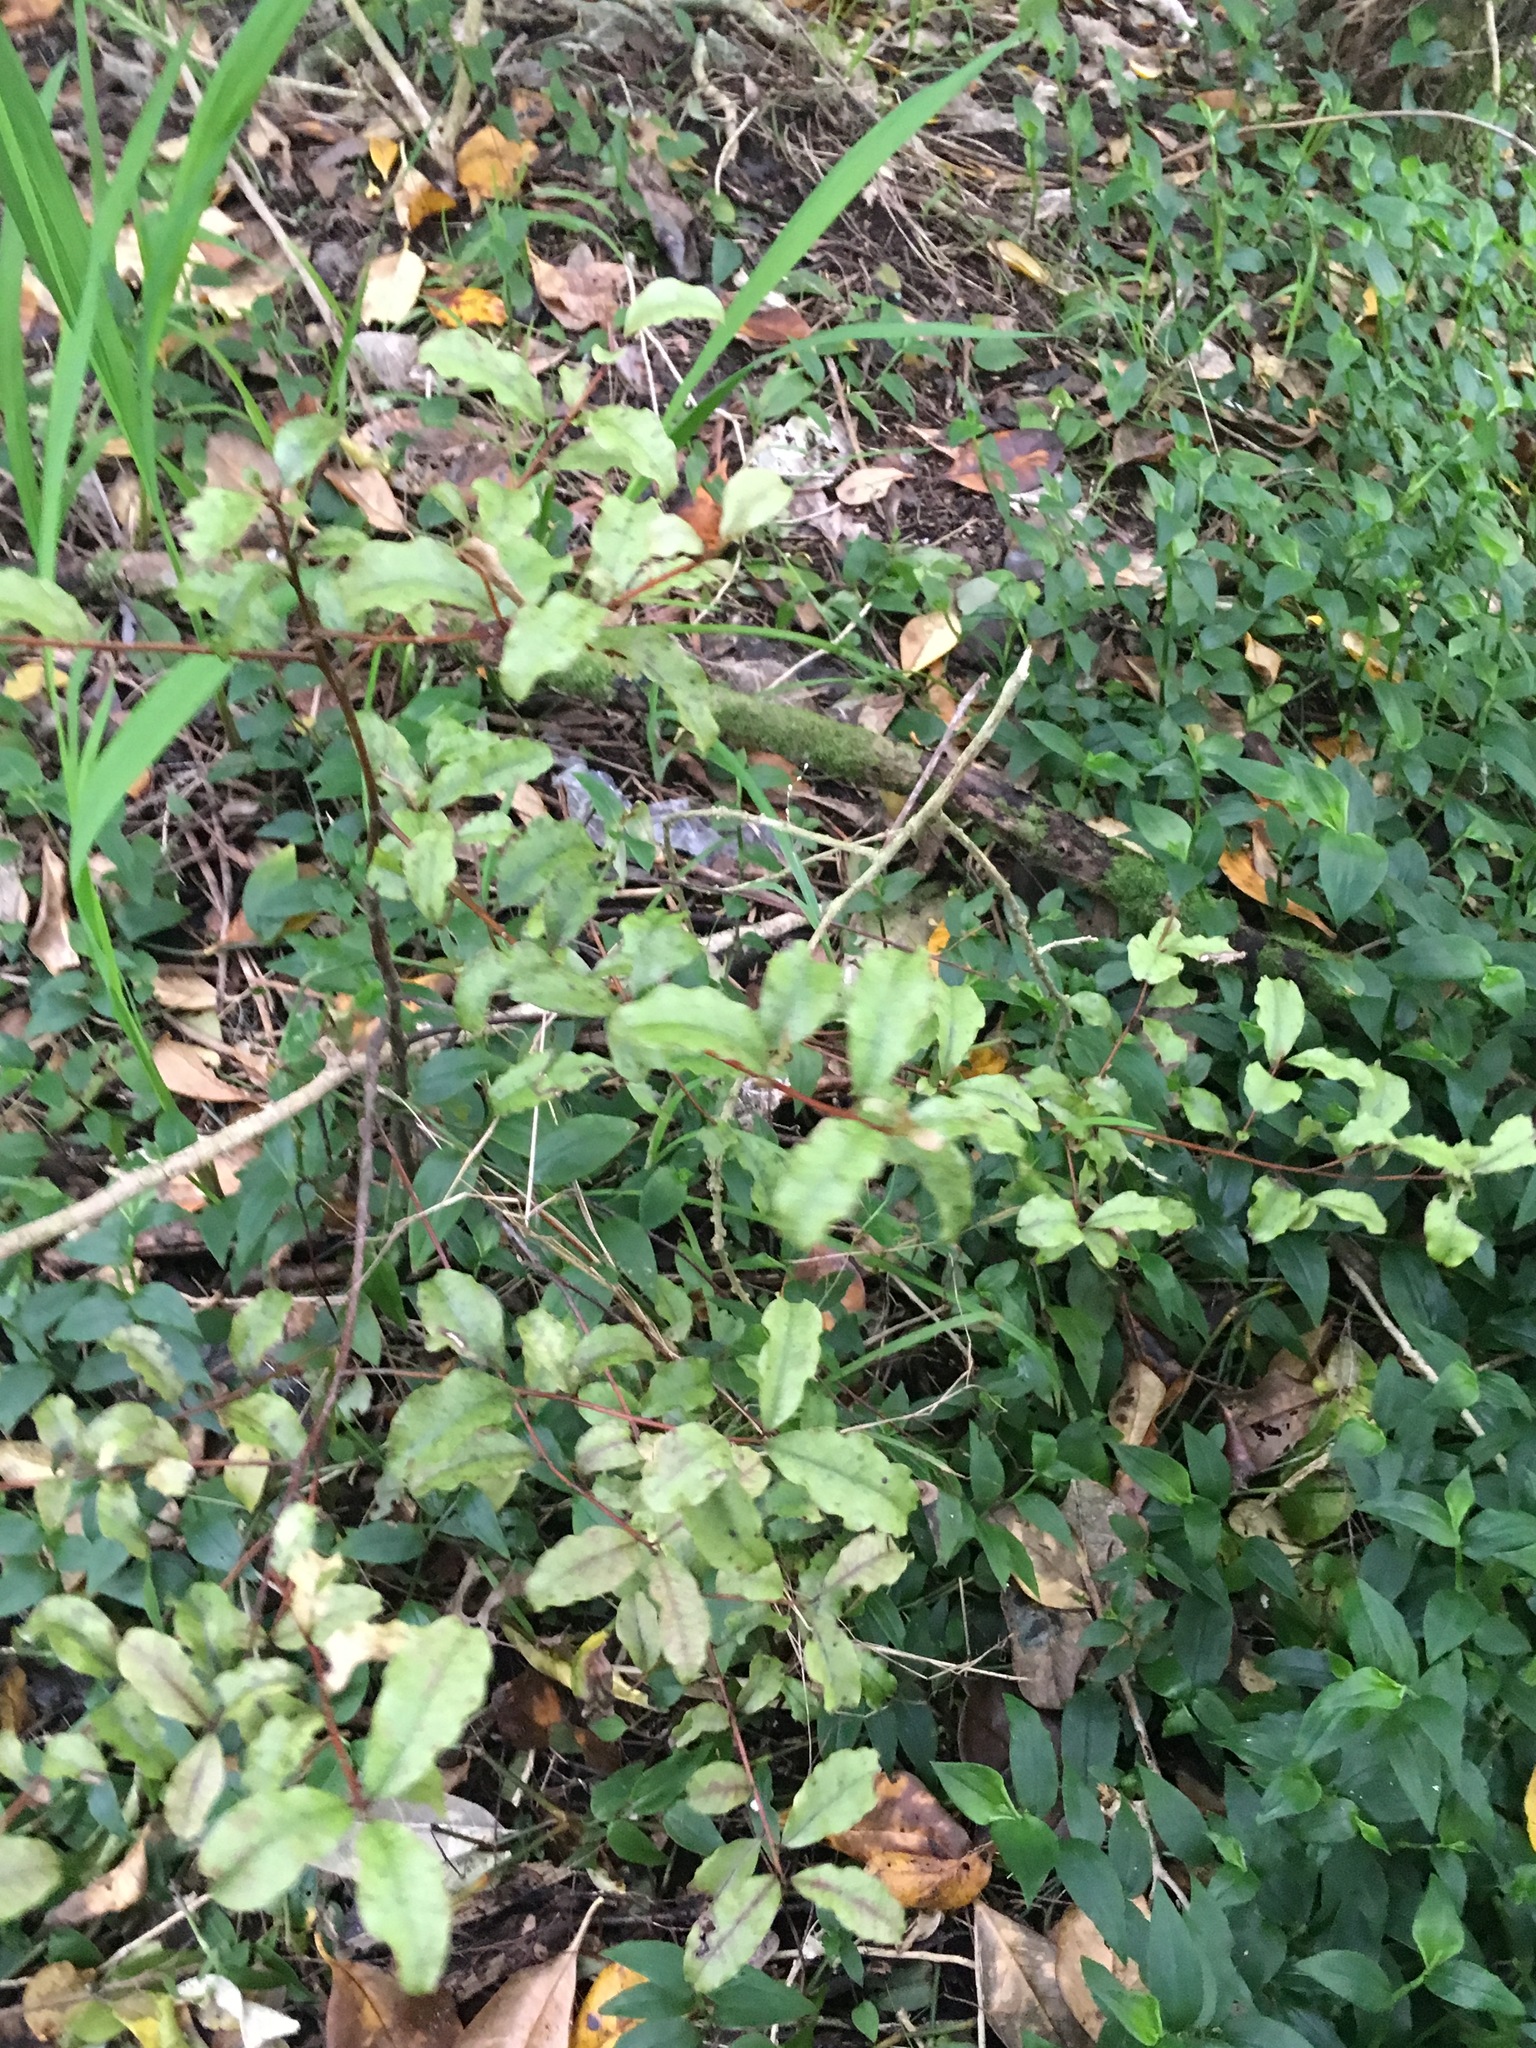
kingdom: Plantae
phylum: Tracheophyta
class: Liliopsida
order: Commelinales
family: Commelinaceae
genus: Tradescantia
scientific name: Tradescantia fluminensis
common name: Wandering-jew
